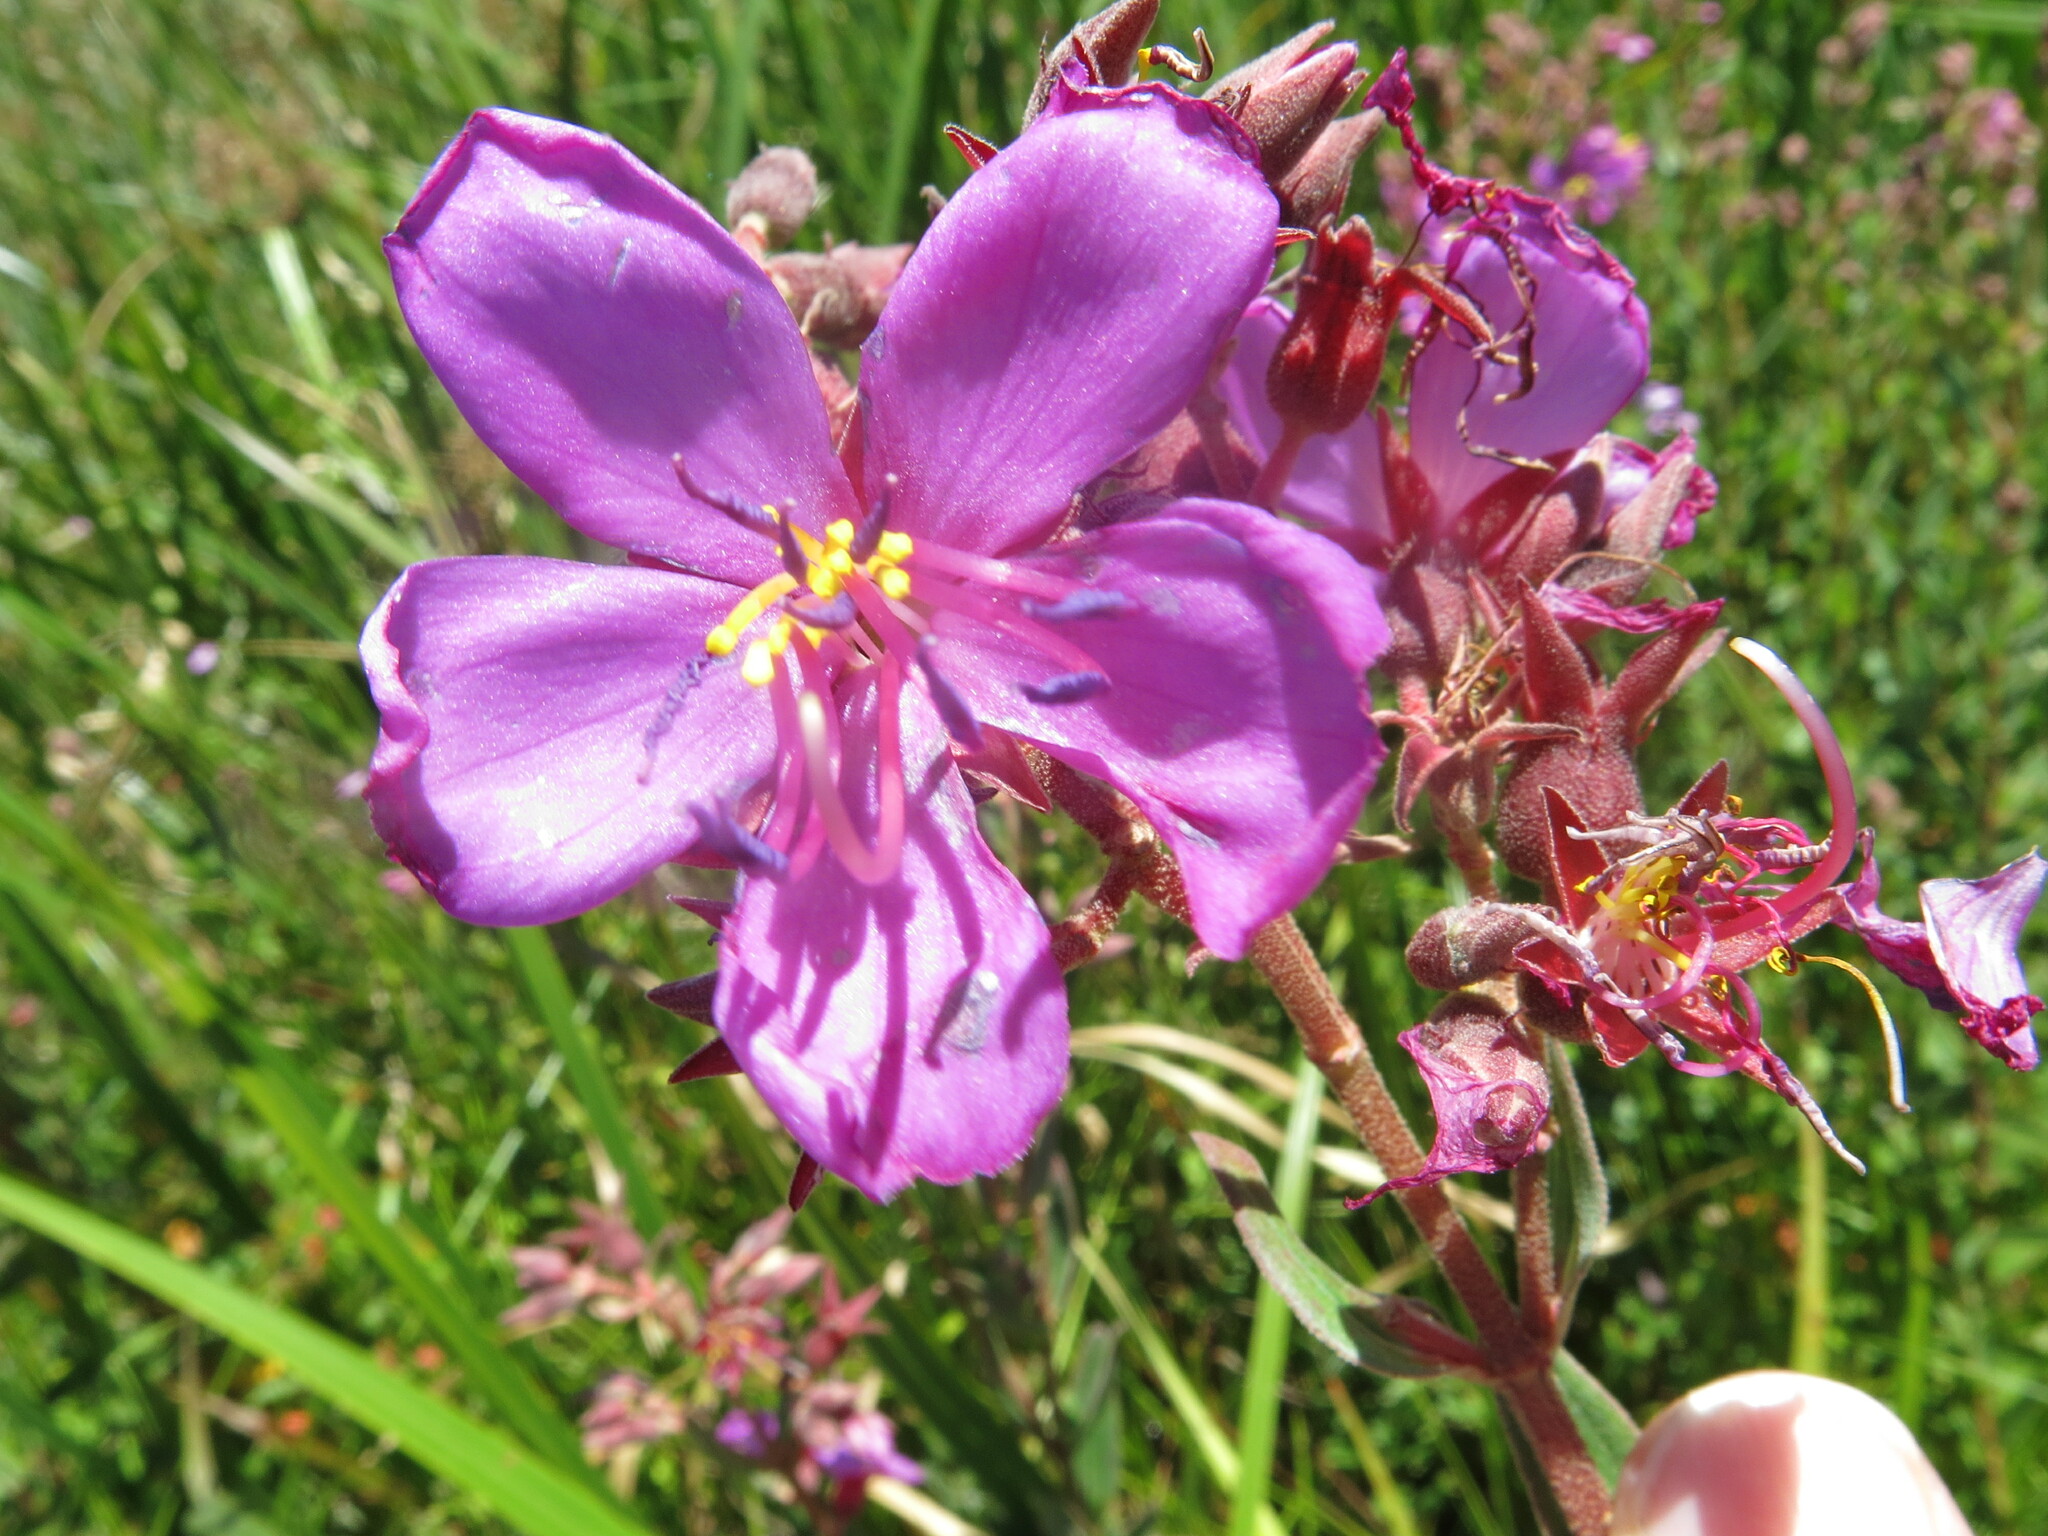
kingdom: Plantae
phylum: Tracheophyta
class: Magnoliopsida
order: Myrtales
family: Melastomataceae
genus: Argyrella
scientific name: Argyrella canescens
